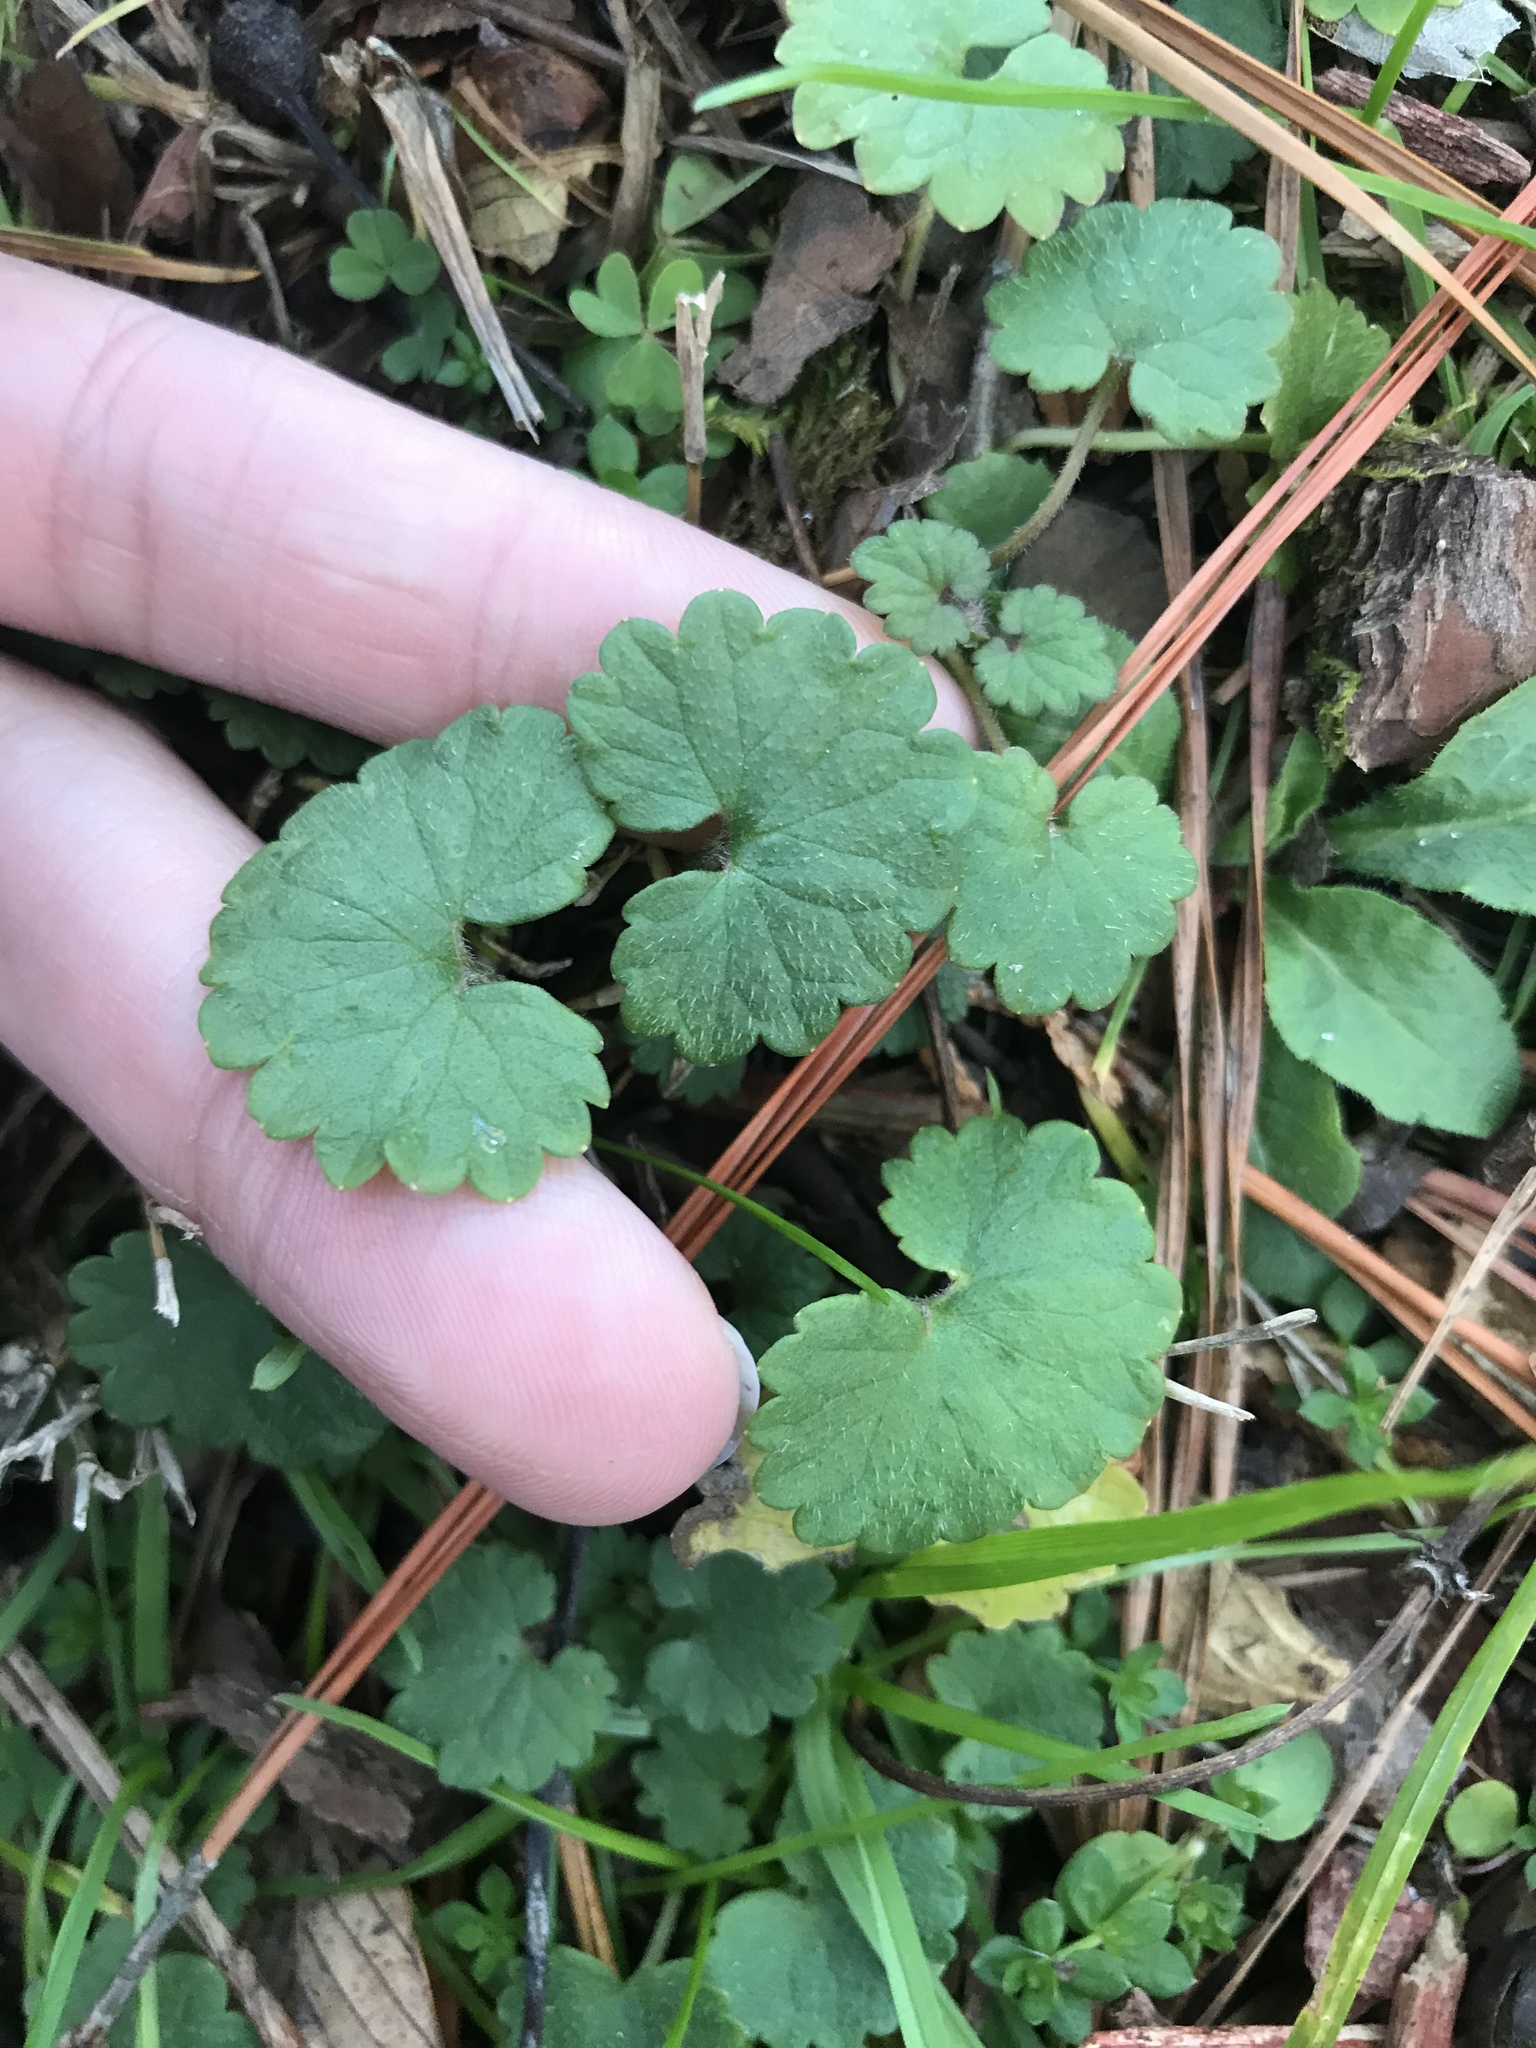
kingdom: Plantae
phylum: Tracheophyta
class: Magnoliopsida
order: Lamiales
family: Lamiaceae
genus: Glechoma
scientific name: Glechoma hederacea
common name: Ground ivy
